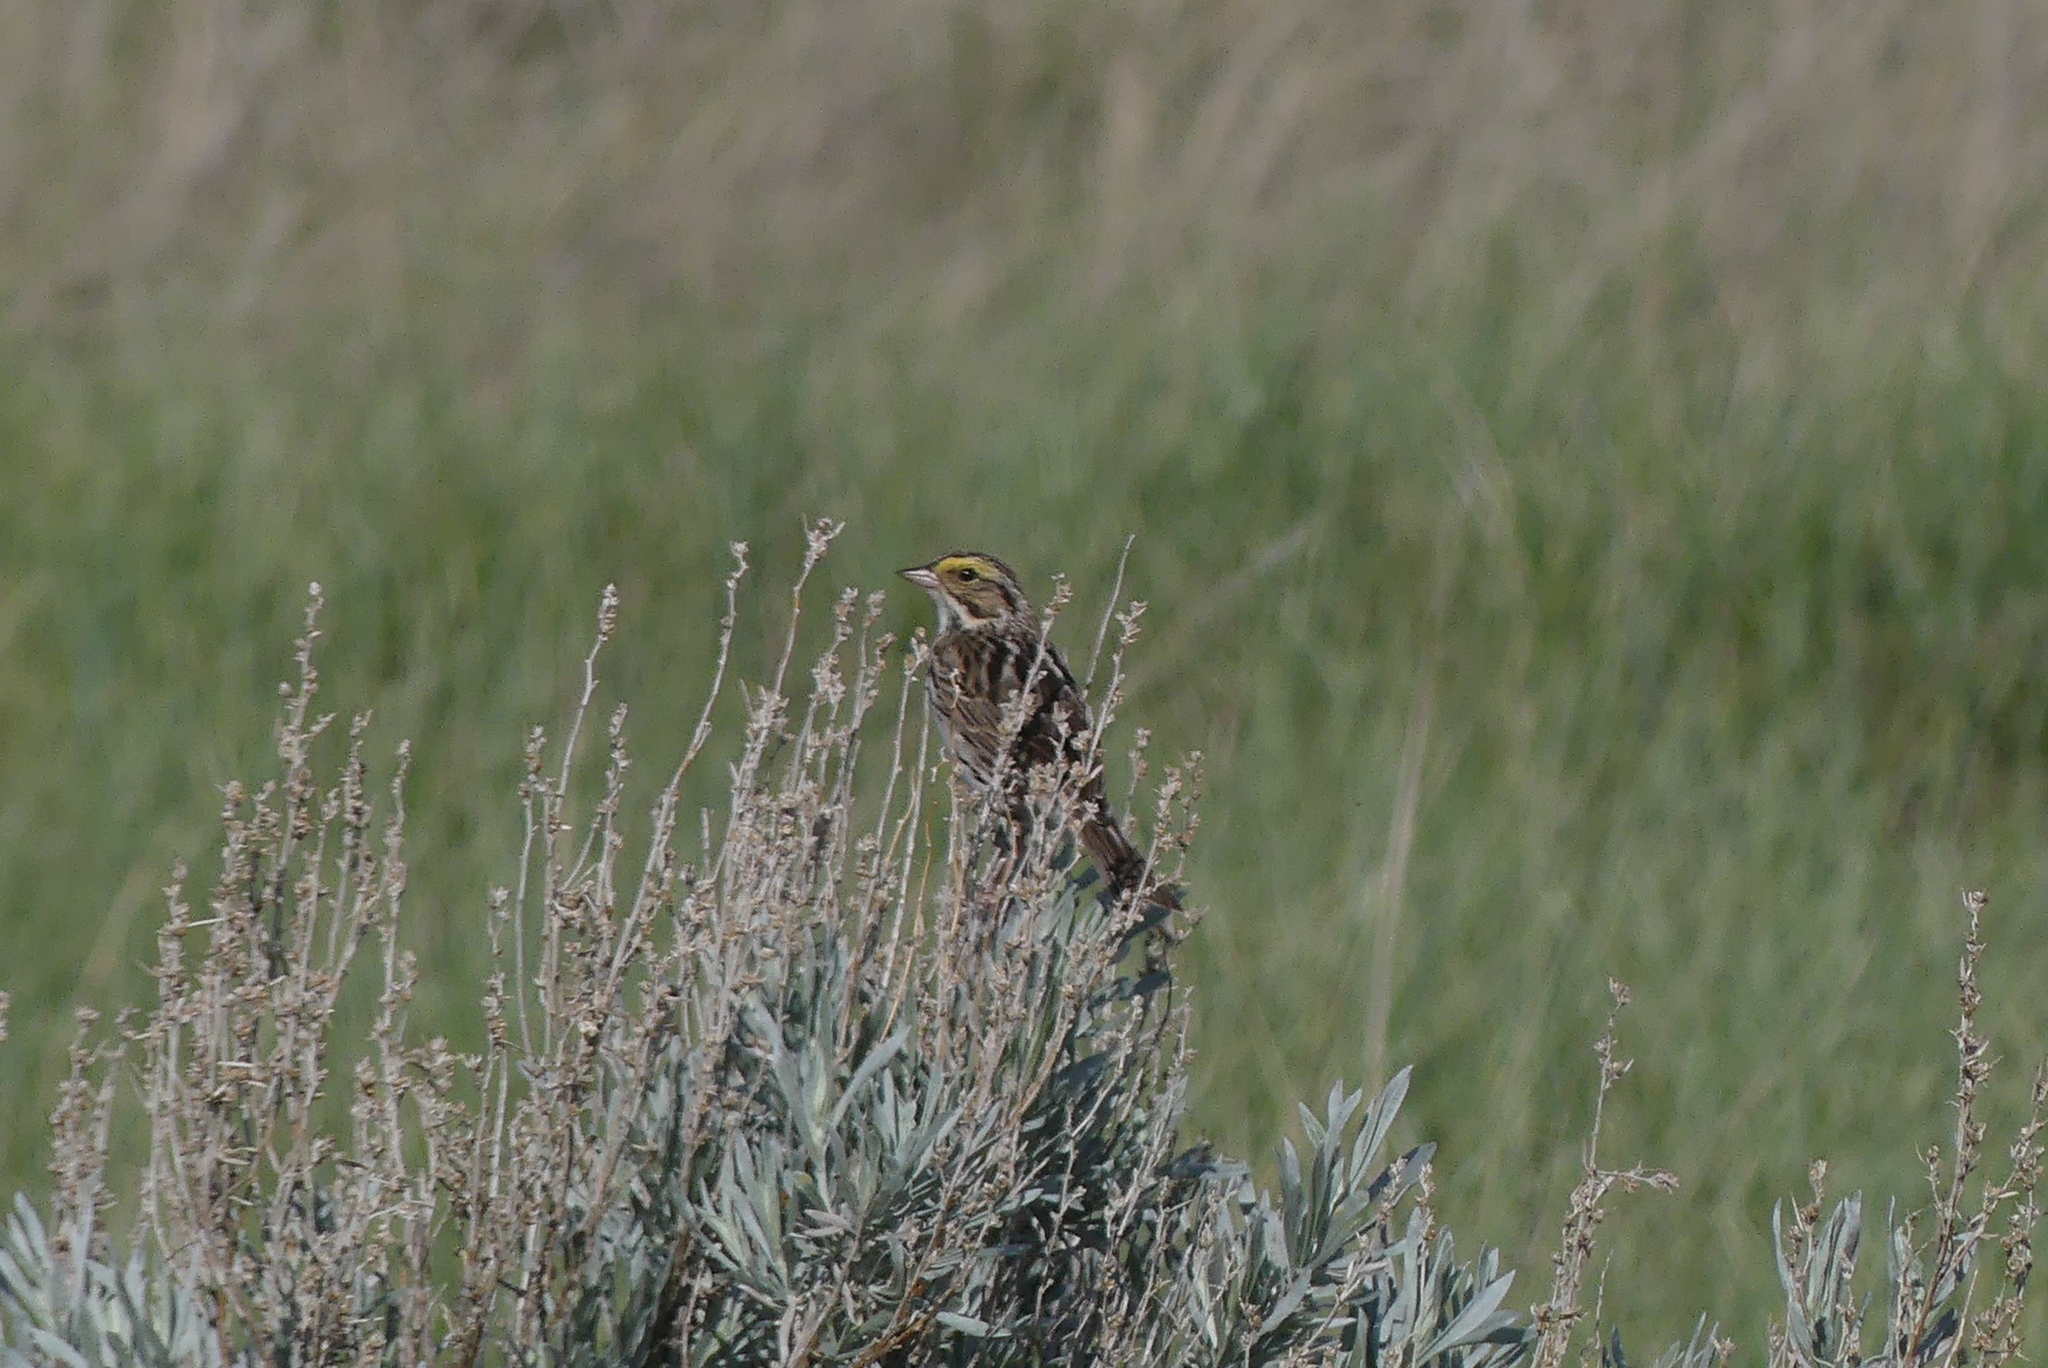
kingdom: Animalia
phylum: Chordata
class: Aves
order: Passeriformes
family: Passerellidae
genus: Passerculus
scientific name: Passerculus sandwichensis
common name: Savannah sparrow
